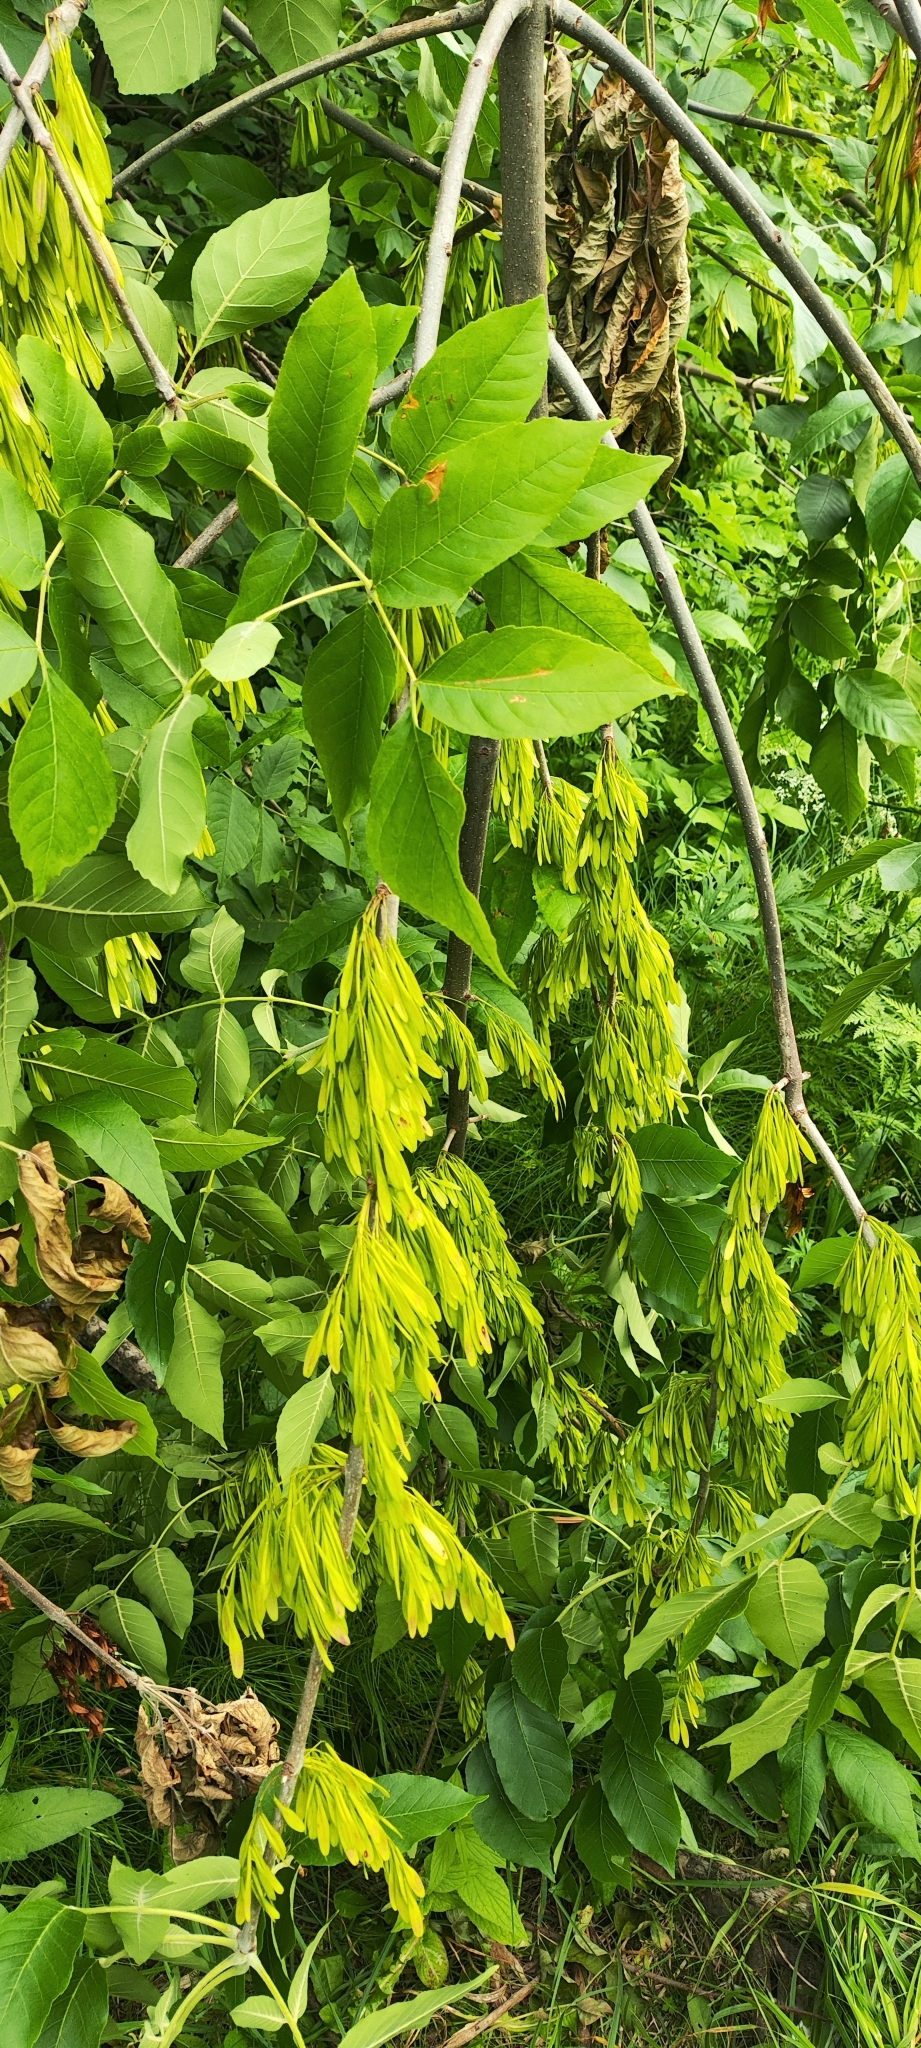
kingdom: Plantae
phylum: Tracheophyta
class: Magnoliopsida
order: Lamiales
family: Oleaceae
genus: Fraxinus
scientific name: Fraxinus pennsylvanica
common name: Green ash
